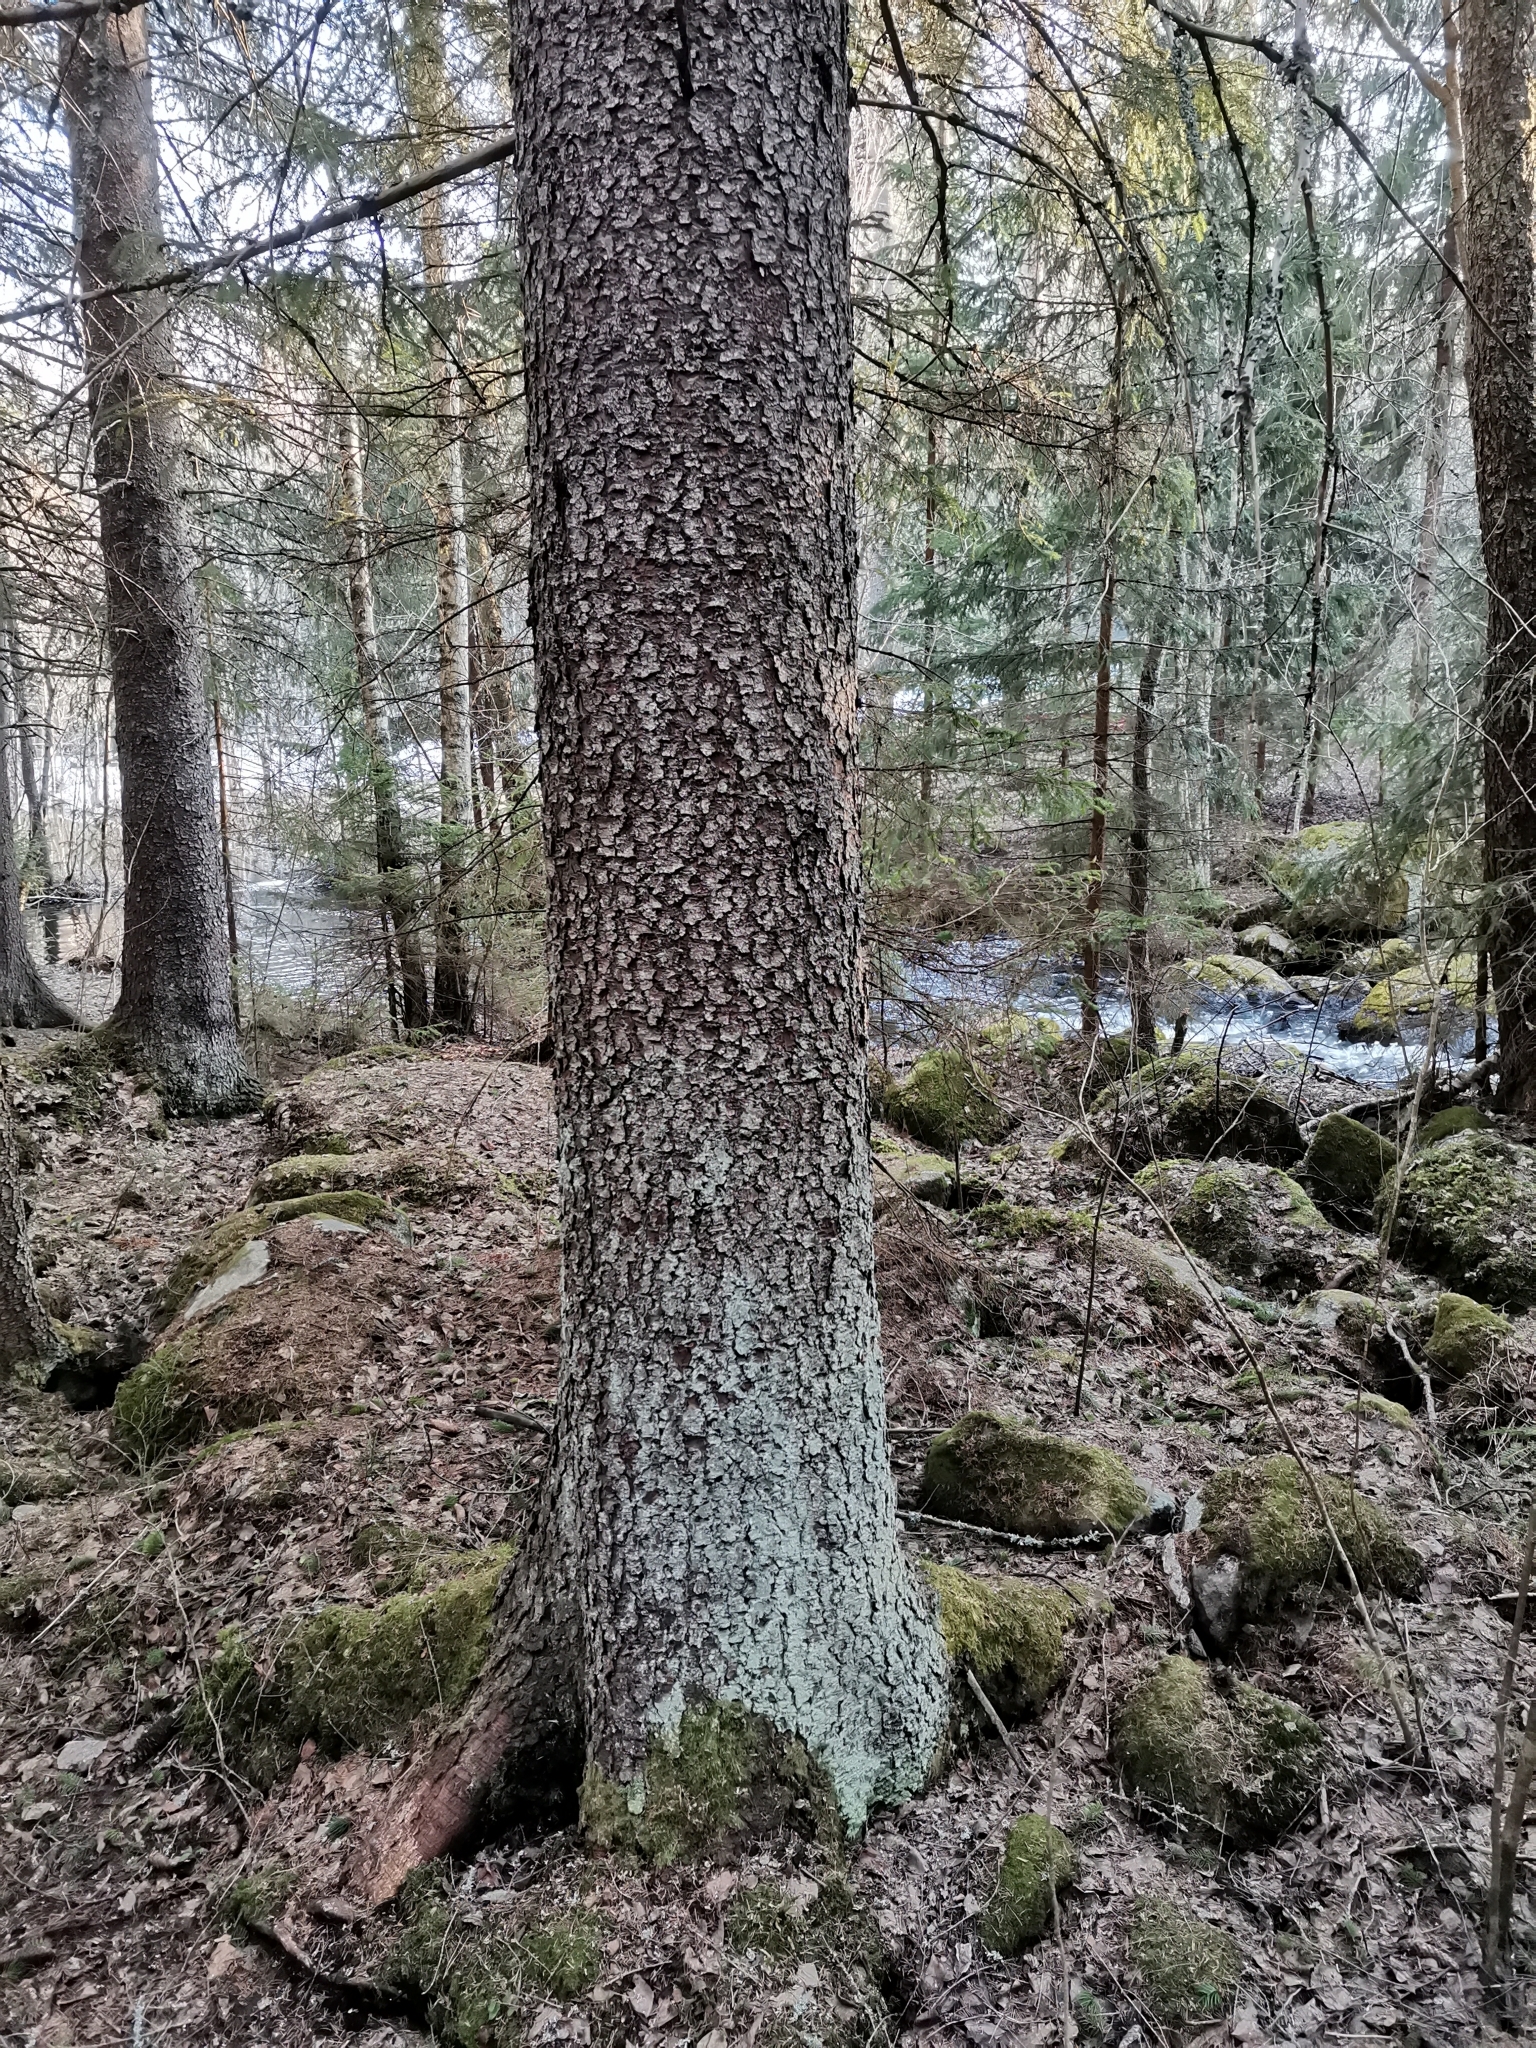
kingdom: Animalia
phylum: Chordata
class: Mammalia
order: Rodentia
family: Sciuridae
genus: Pteromys
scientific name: Pteromys volans
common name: Siberian flying squirrel
